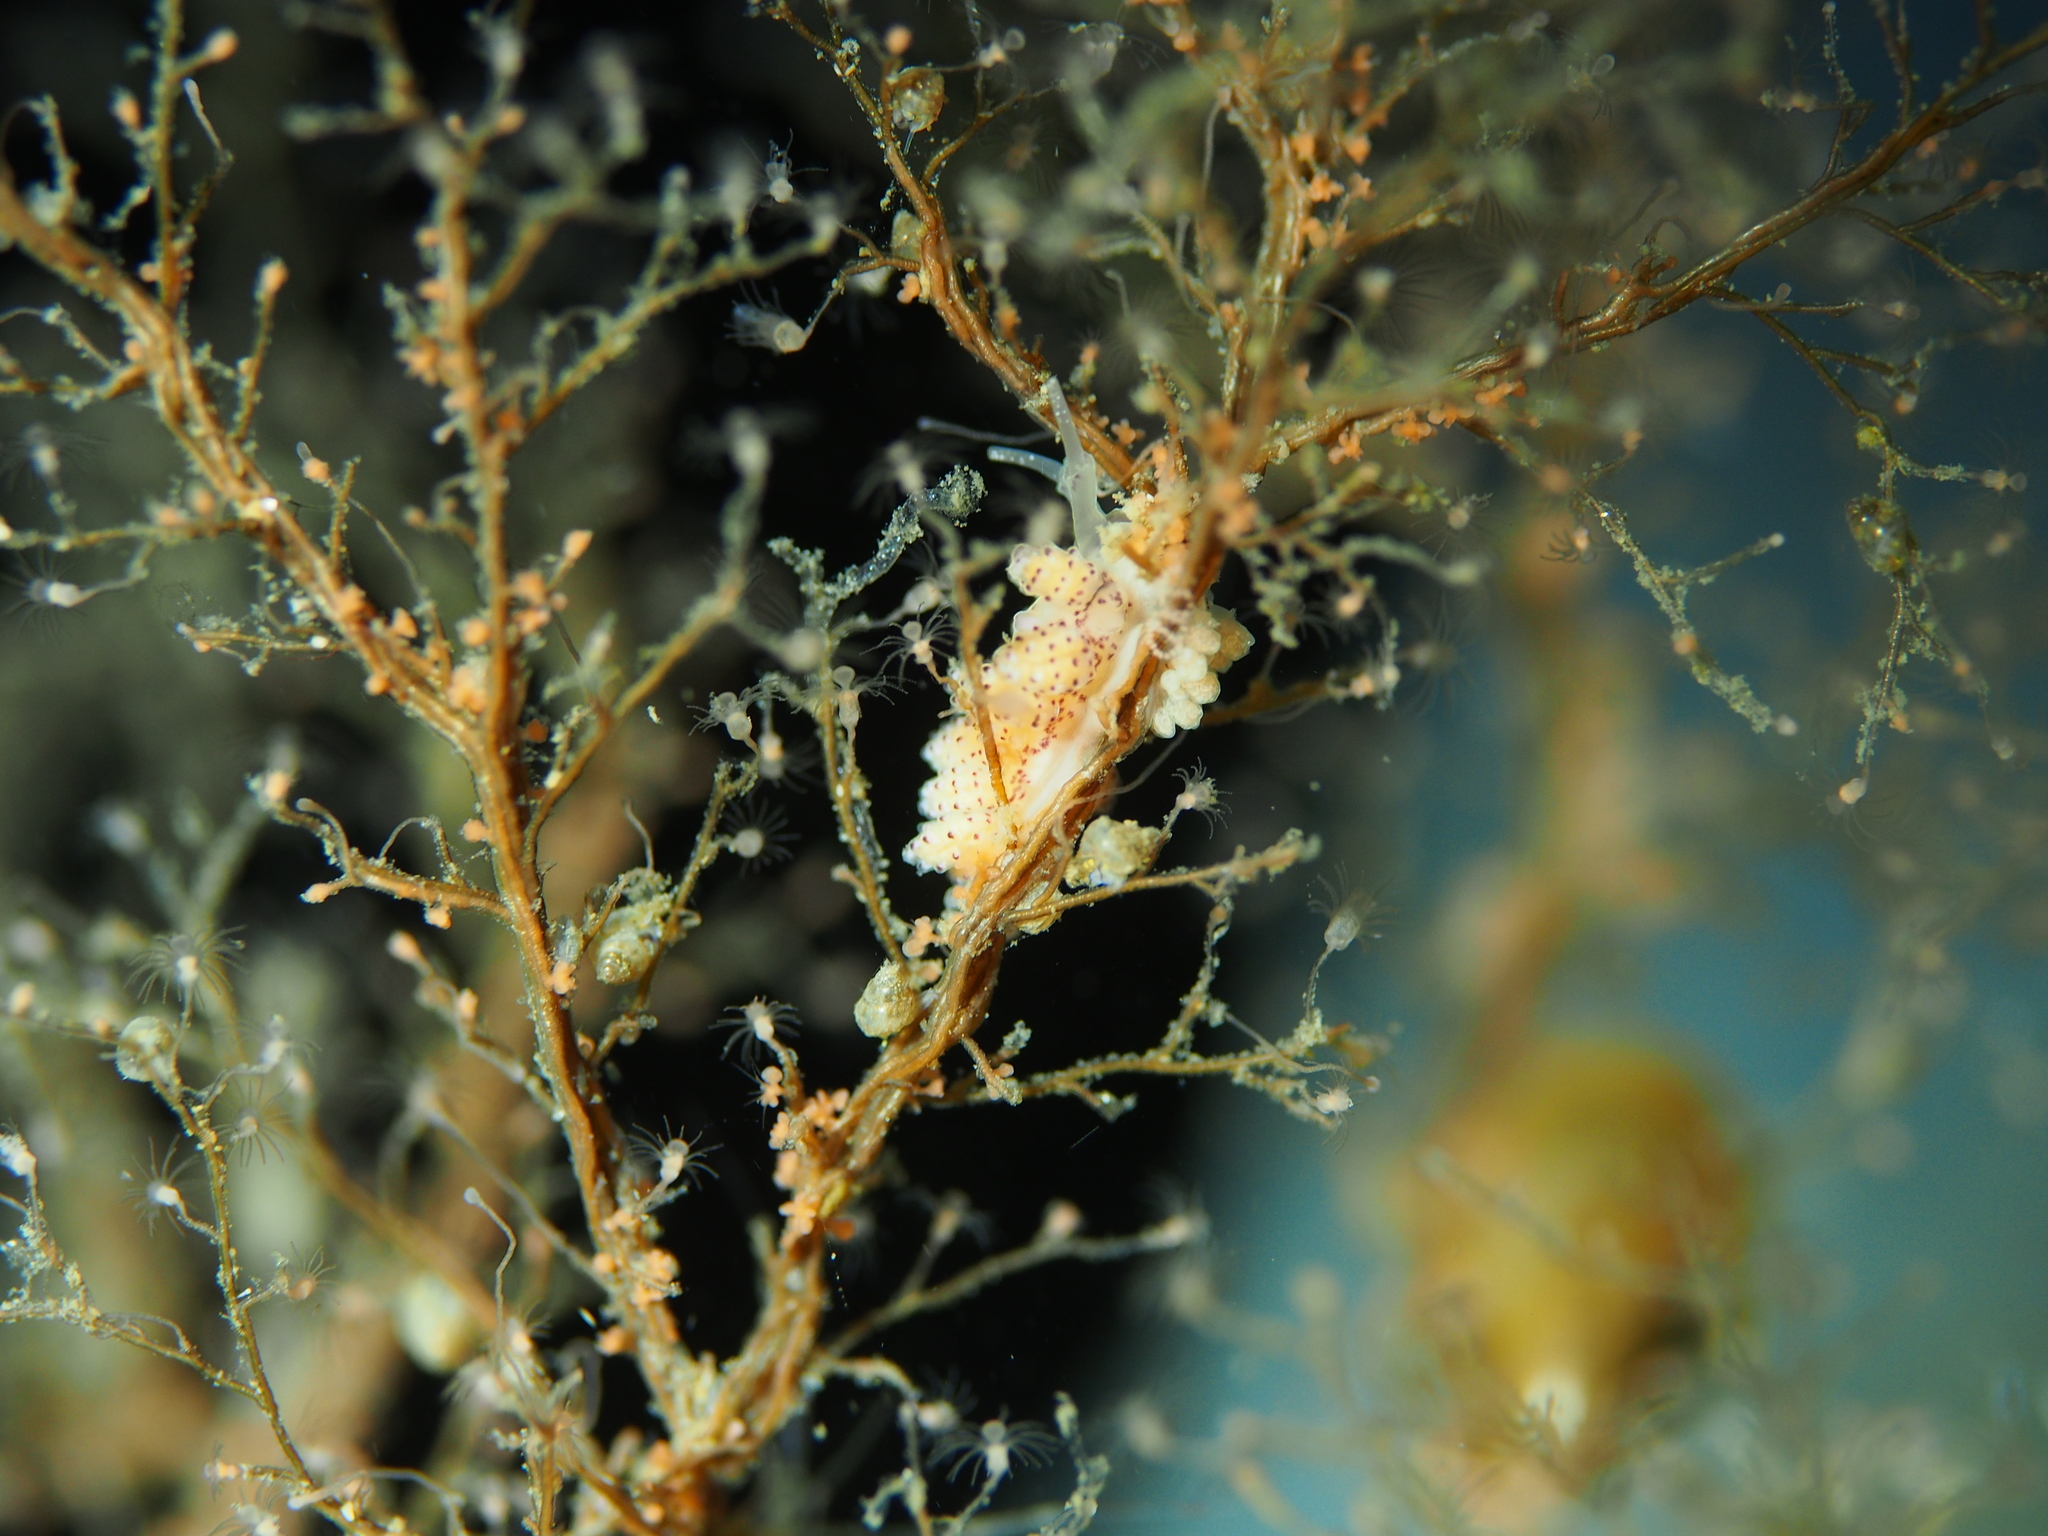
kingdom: Animalia
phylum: Mollusca
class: Gastropoda
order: Nudibranchia
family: Dotidae
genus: Doto
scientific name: Doto dunnei
